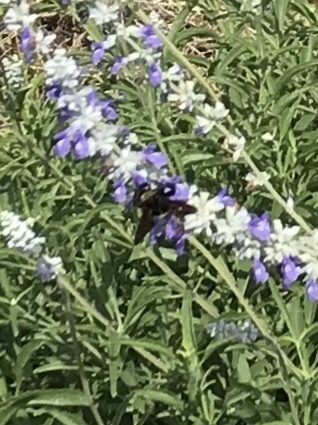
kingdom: Animalia
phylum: Arthropoda
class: Insecta
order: Hymenoptera
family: Apidae
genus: Bombus
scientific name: Bombus pensylvanicus
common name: Bumble bee
